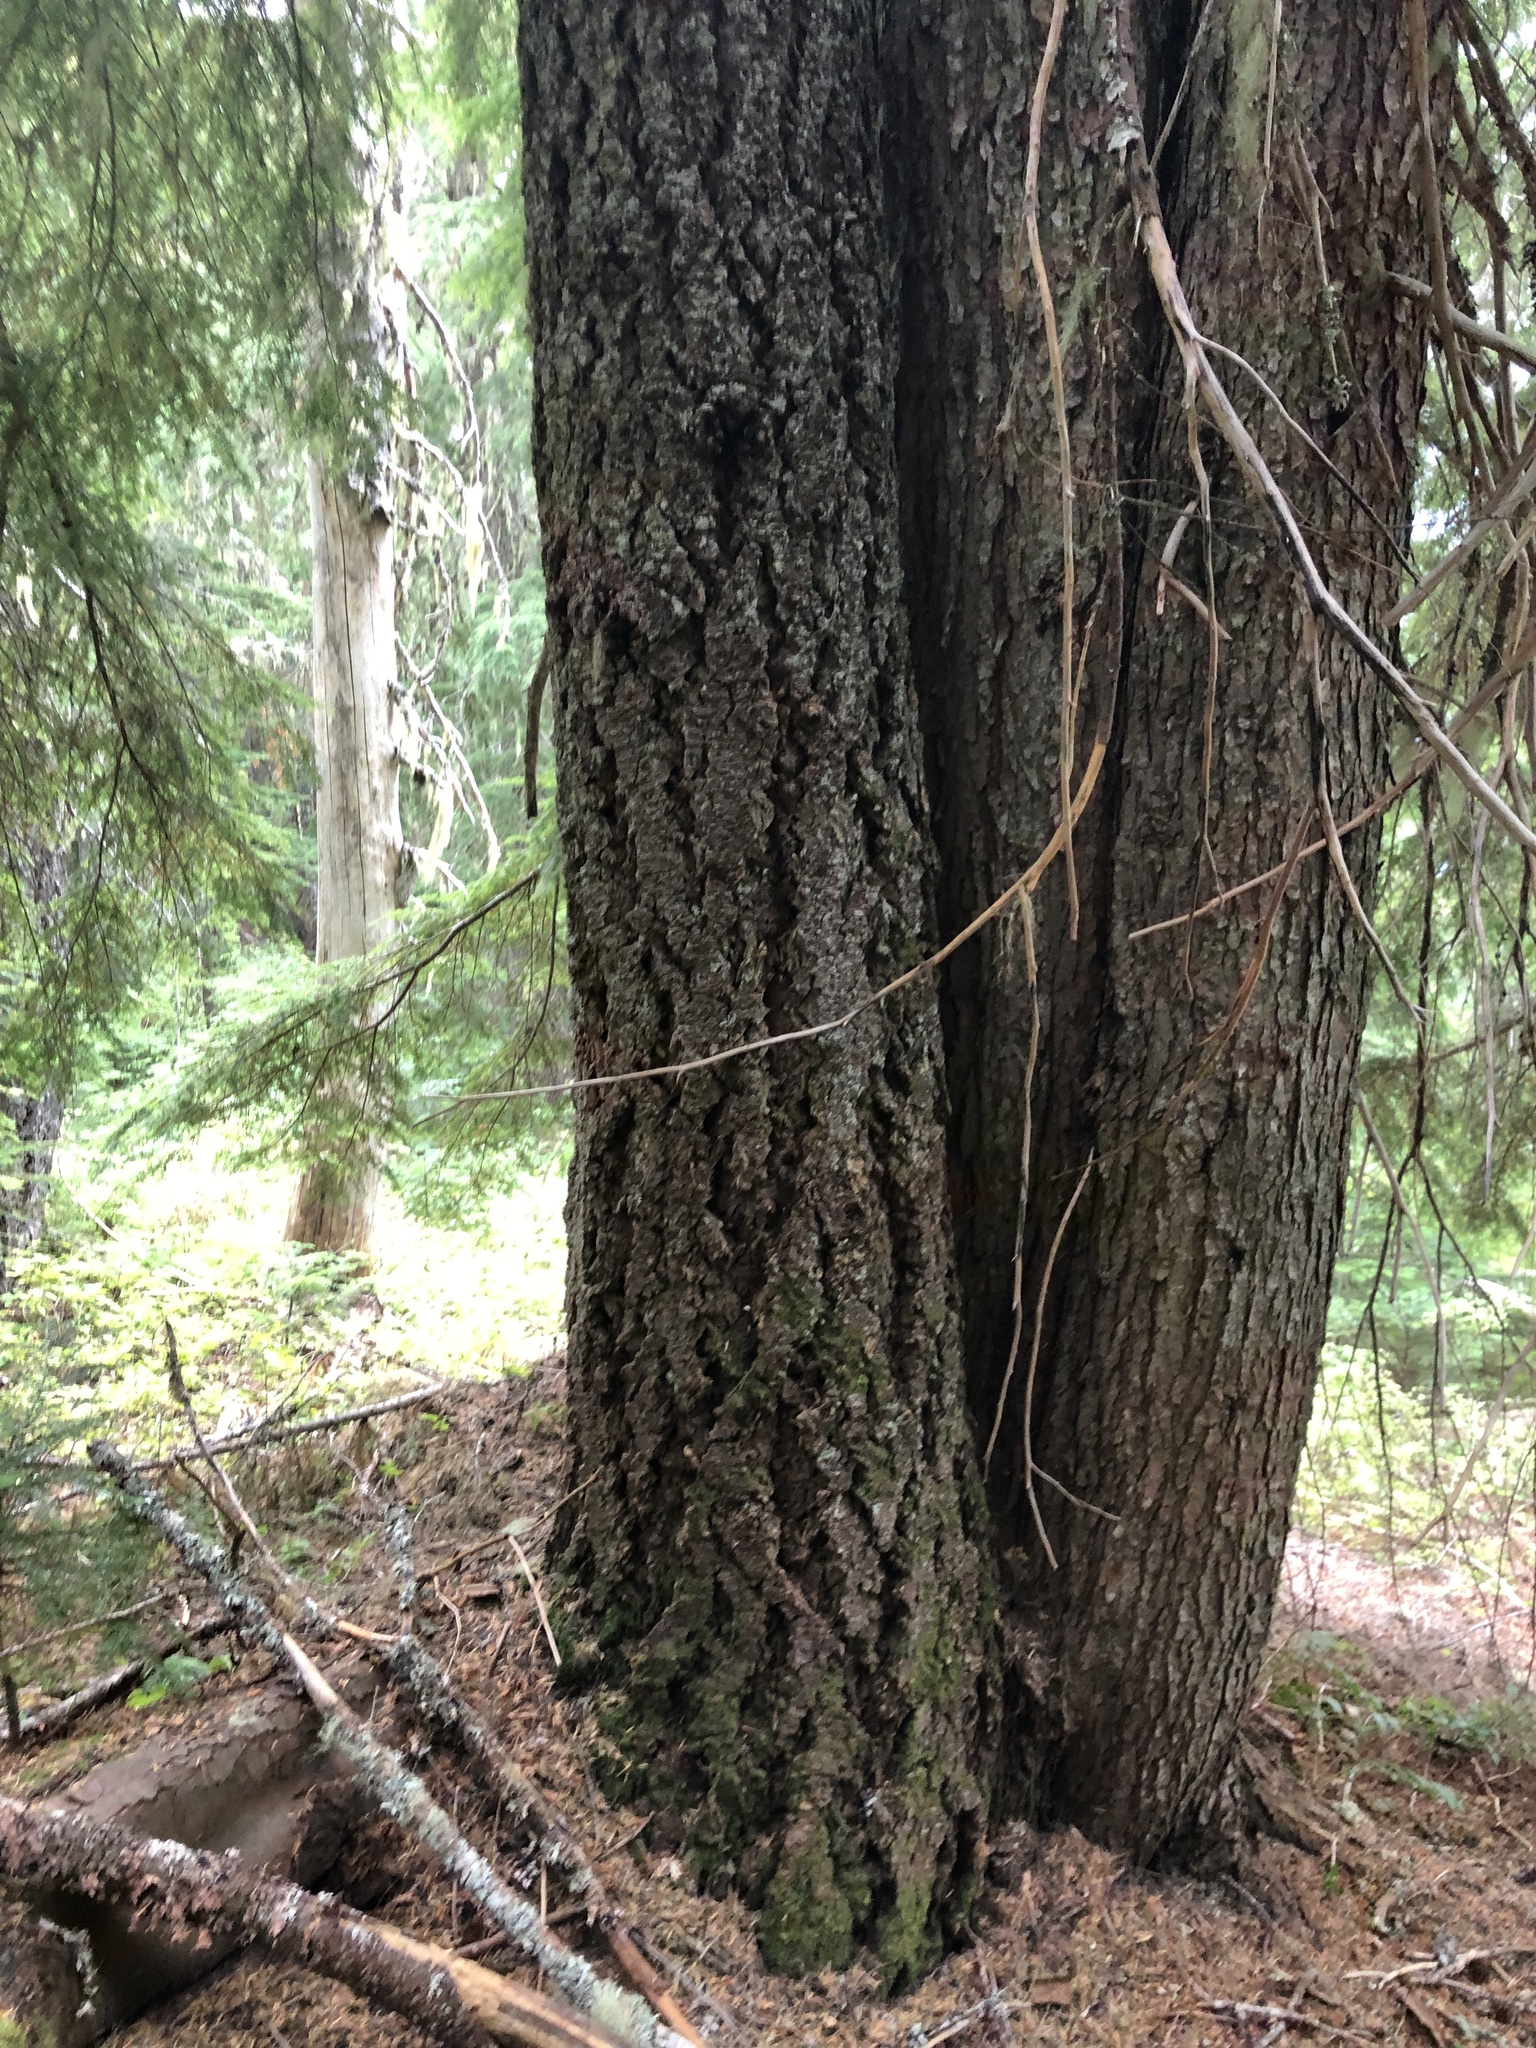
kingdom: Plantae
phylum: Tracheophyta
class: Pinopsida
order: Pinales
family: Pinaceae
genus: Pseudotsuga
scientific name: Pseudotsuga menziesii
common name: Douglas fir
